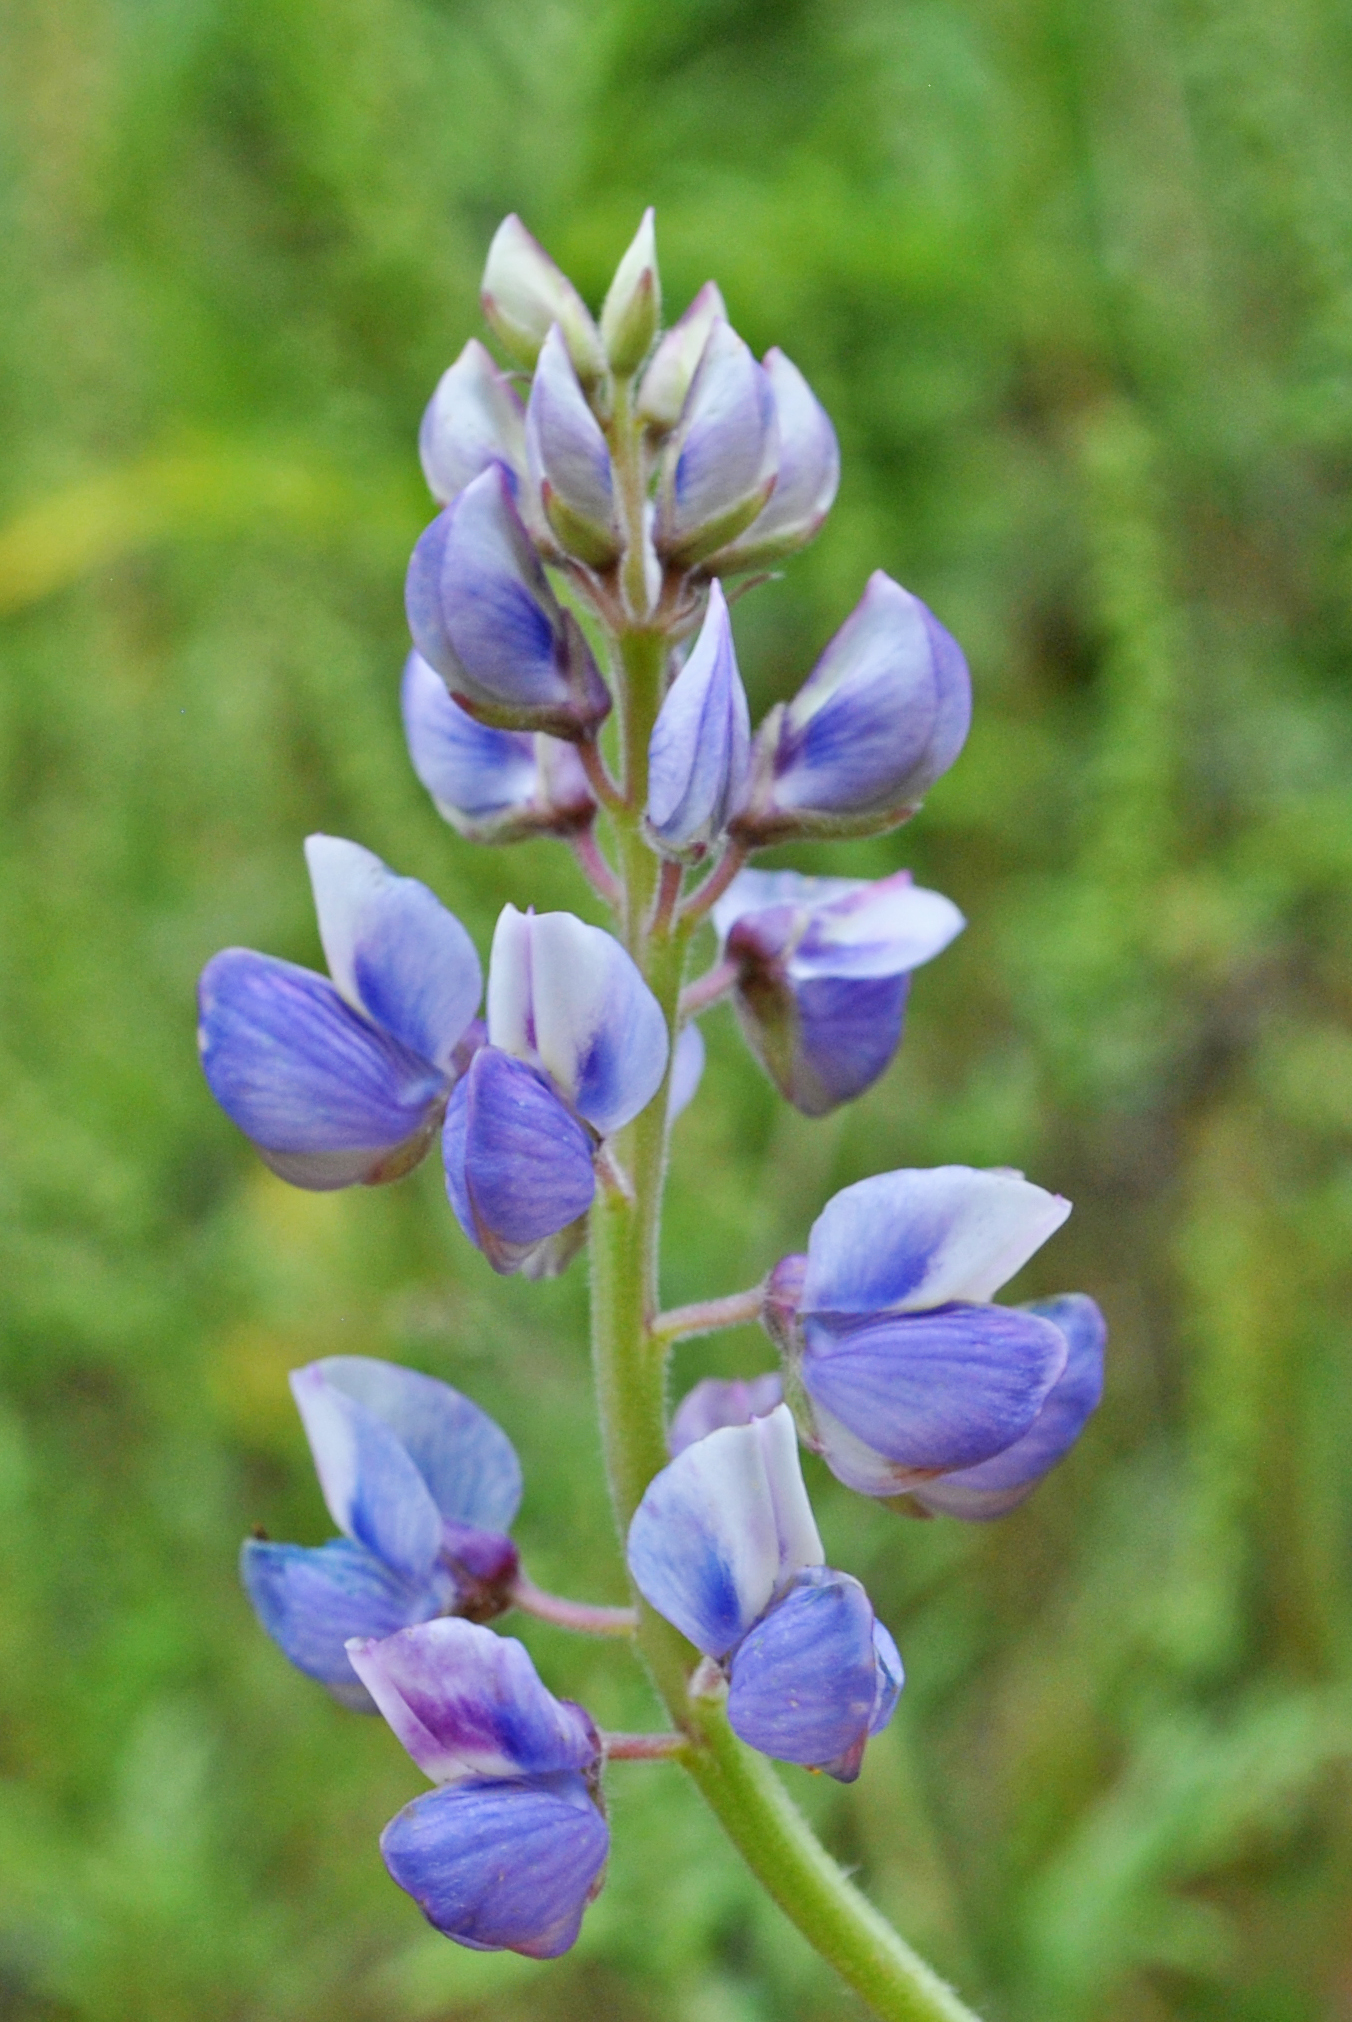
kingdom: Plantae
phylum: Tracheophyta
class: Magnoliopsida
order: Fabales
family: Fabaceae
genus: Lupinus
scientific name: Lupinus perennis
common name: Sundial lupine
